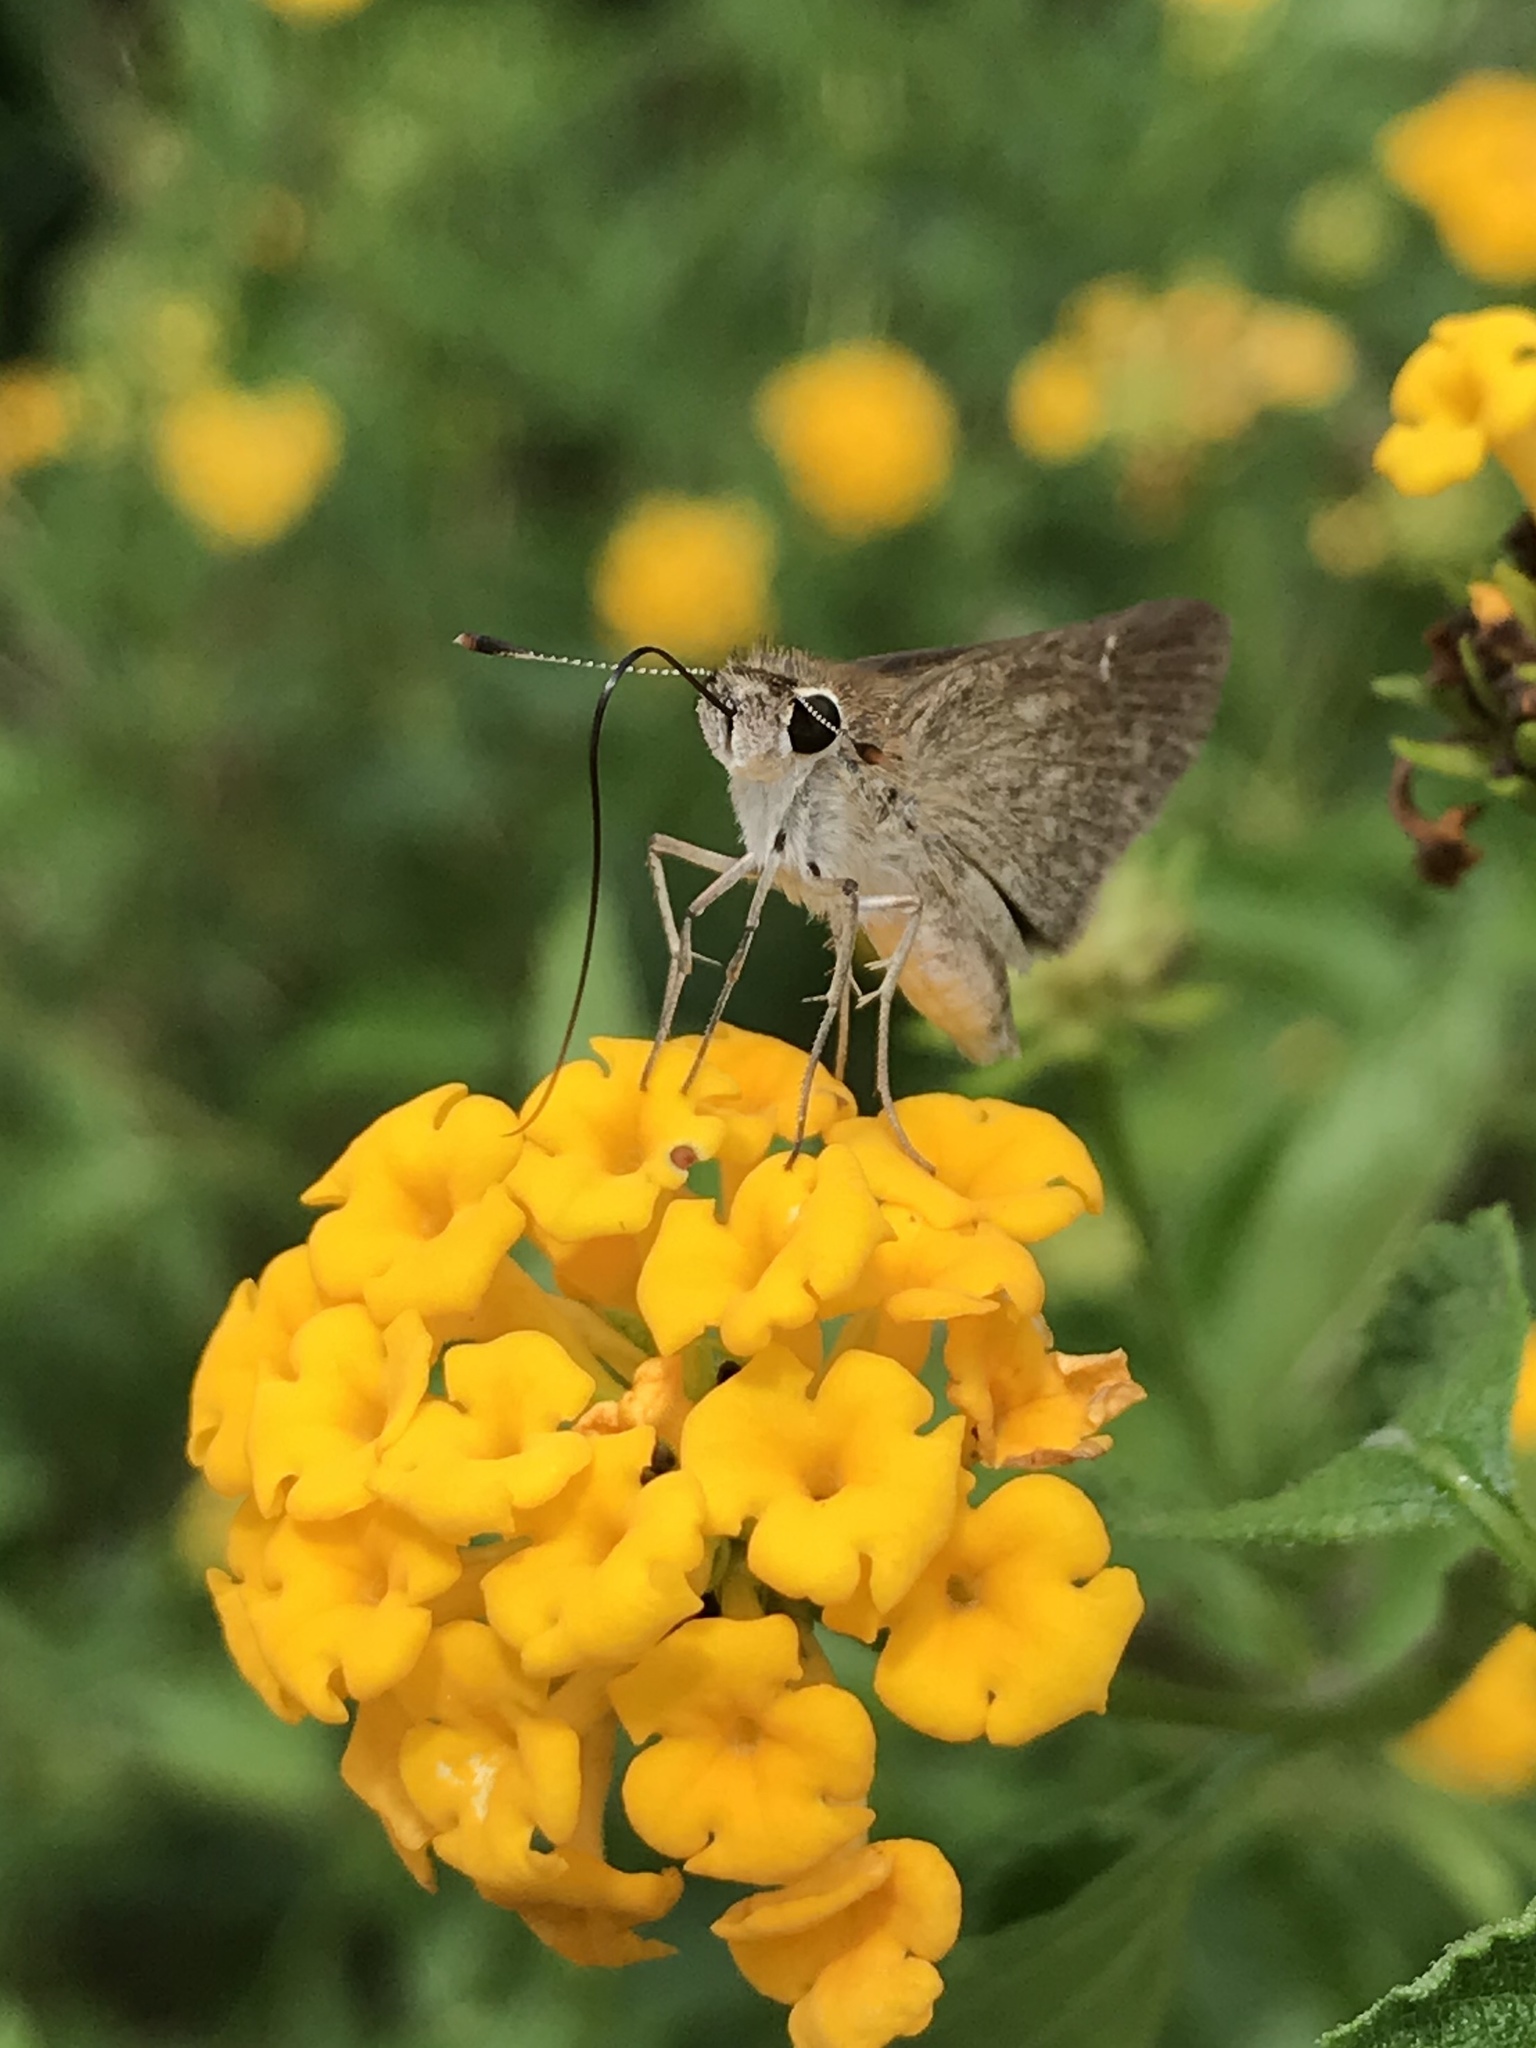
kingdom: Animalia
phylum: Arthropoda
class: Insecta
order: Lepidoptera
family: Hesperiidae
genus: Lerodea
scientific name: Lerodea eufala
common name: Eufala skipper
